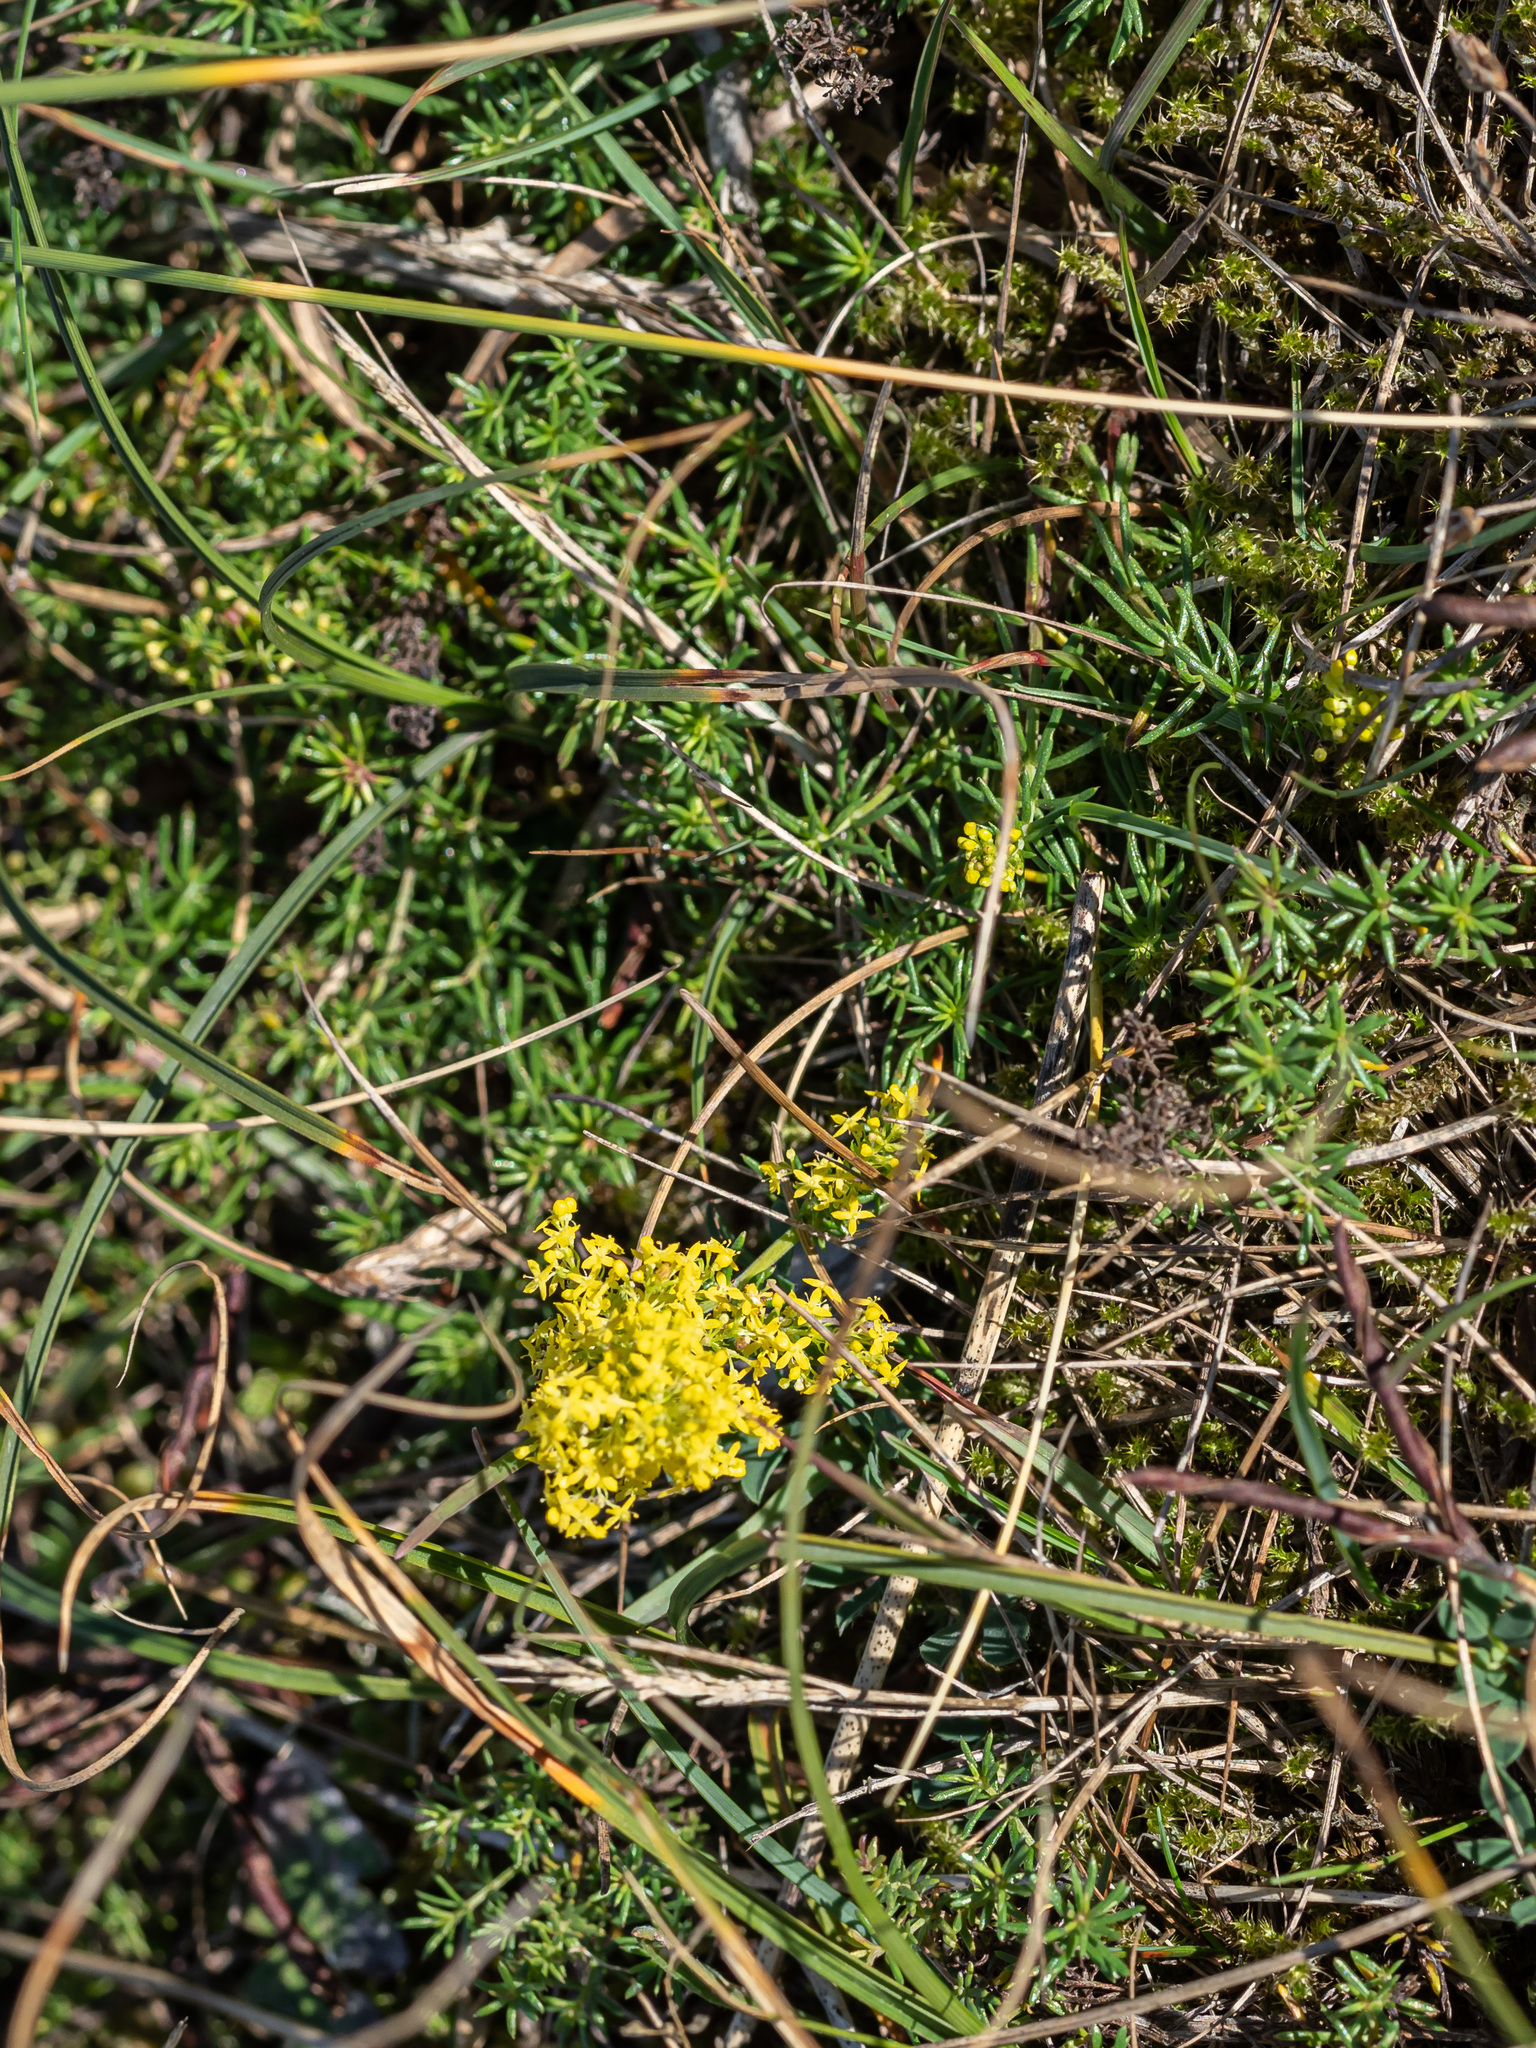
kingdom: Plantae
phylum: Tracheophyta
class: Magnoliopsida
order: Gentianales
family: Rubiaceae
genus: Galium
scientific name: Galium verum
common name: Lady's bedstraw
